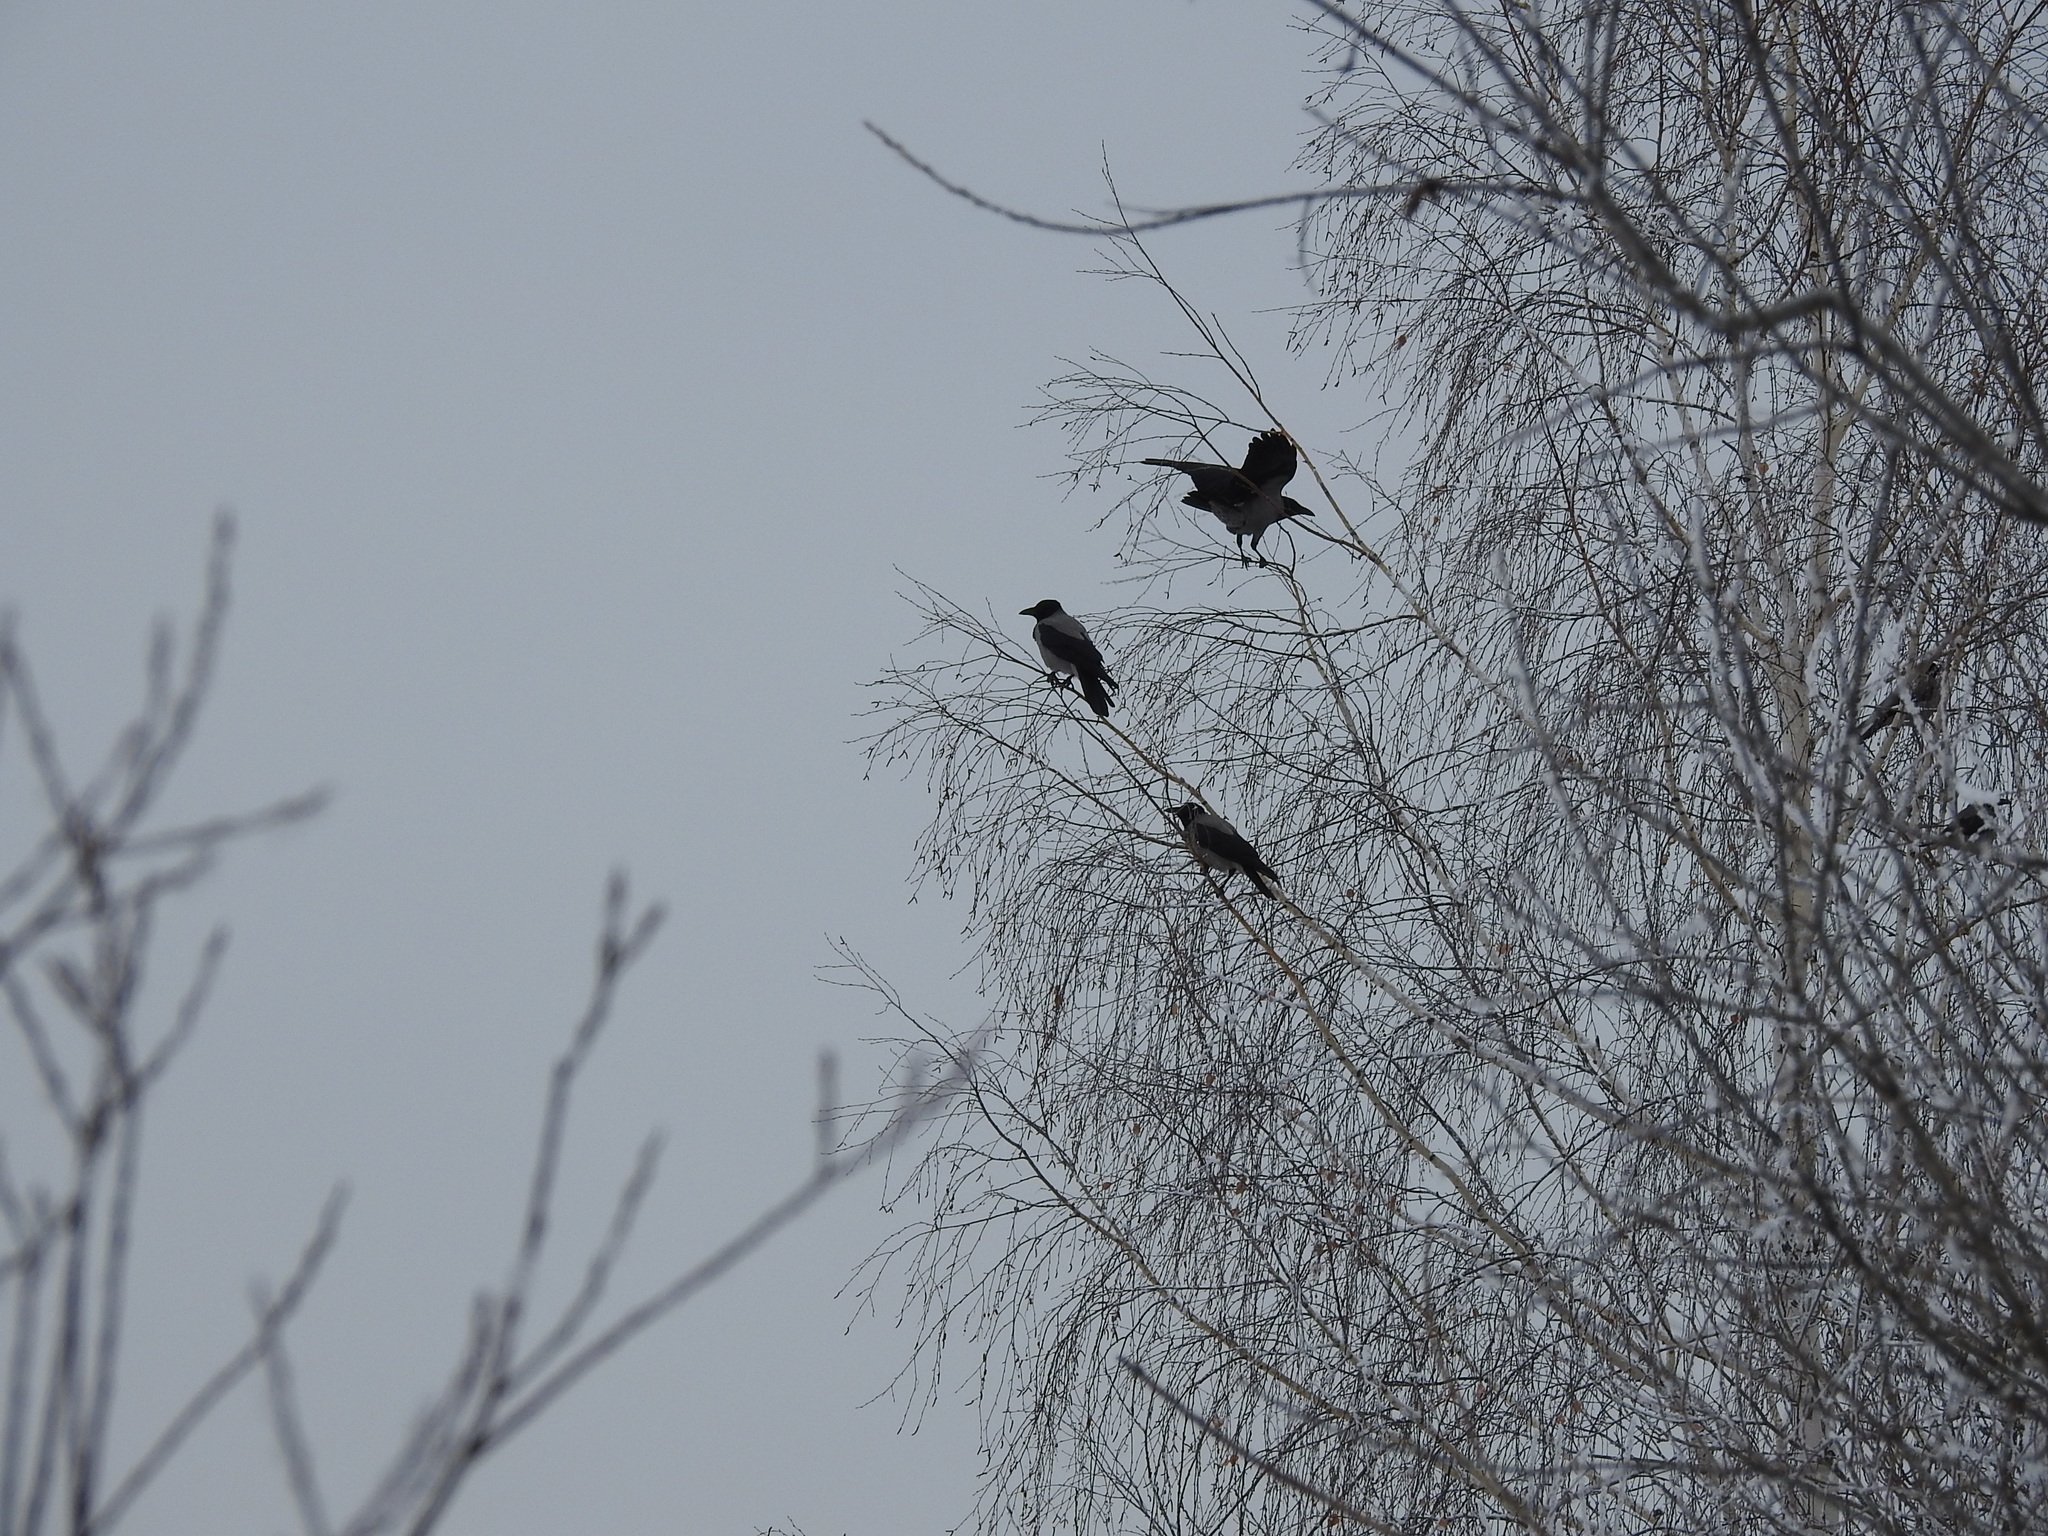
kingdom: Animalia
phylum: Chordata
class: Aves
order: Passeriformes
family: Corvidae
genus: Corvus
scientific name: Corvus cornix
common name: Hooded crow
